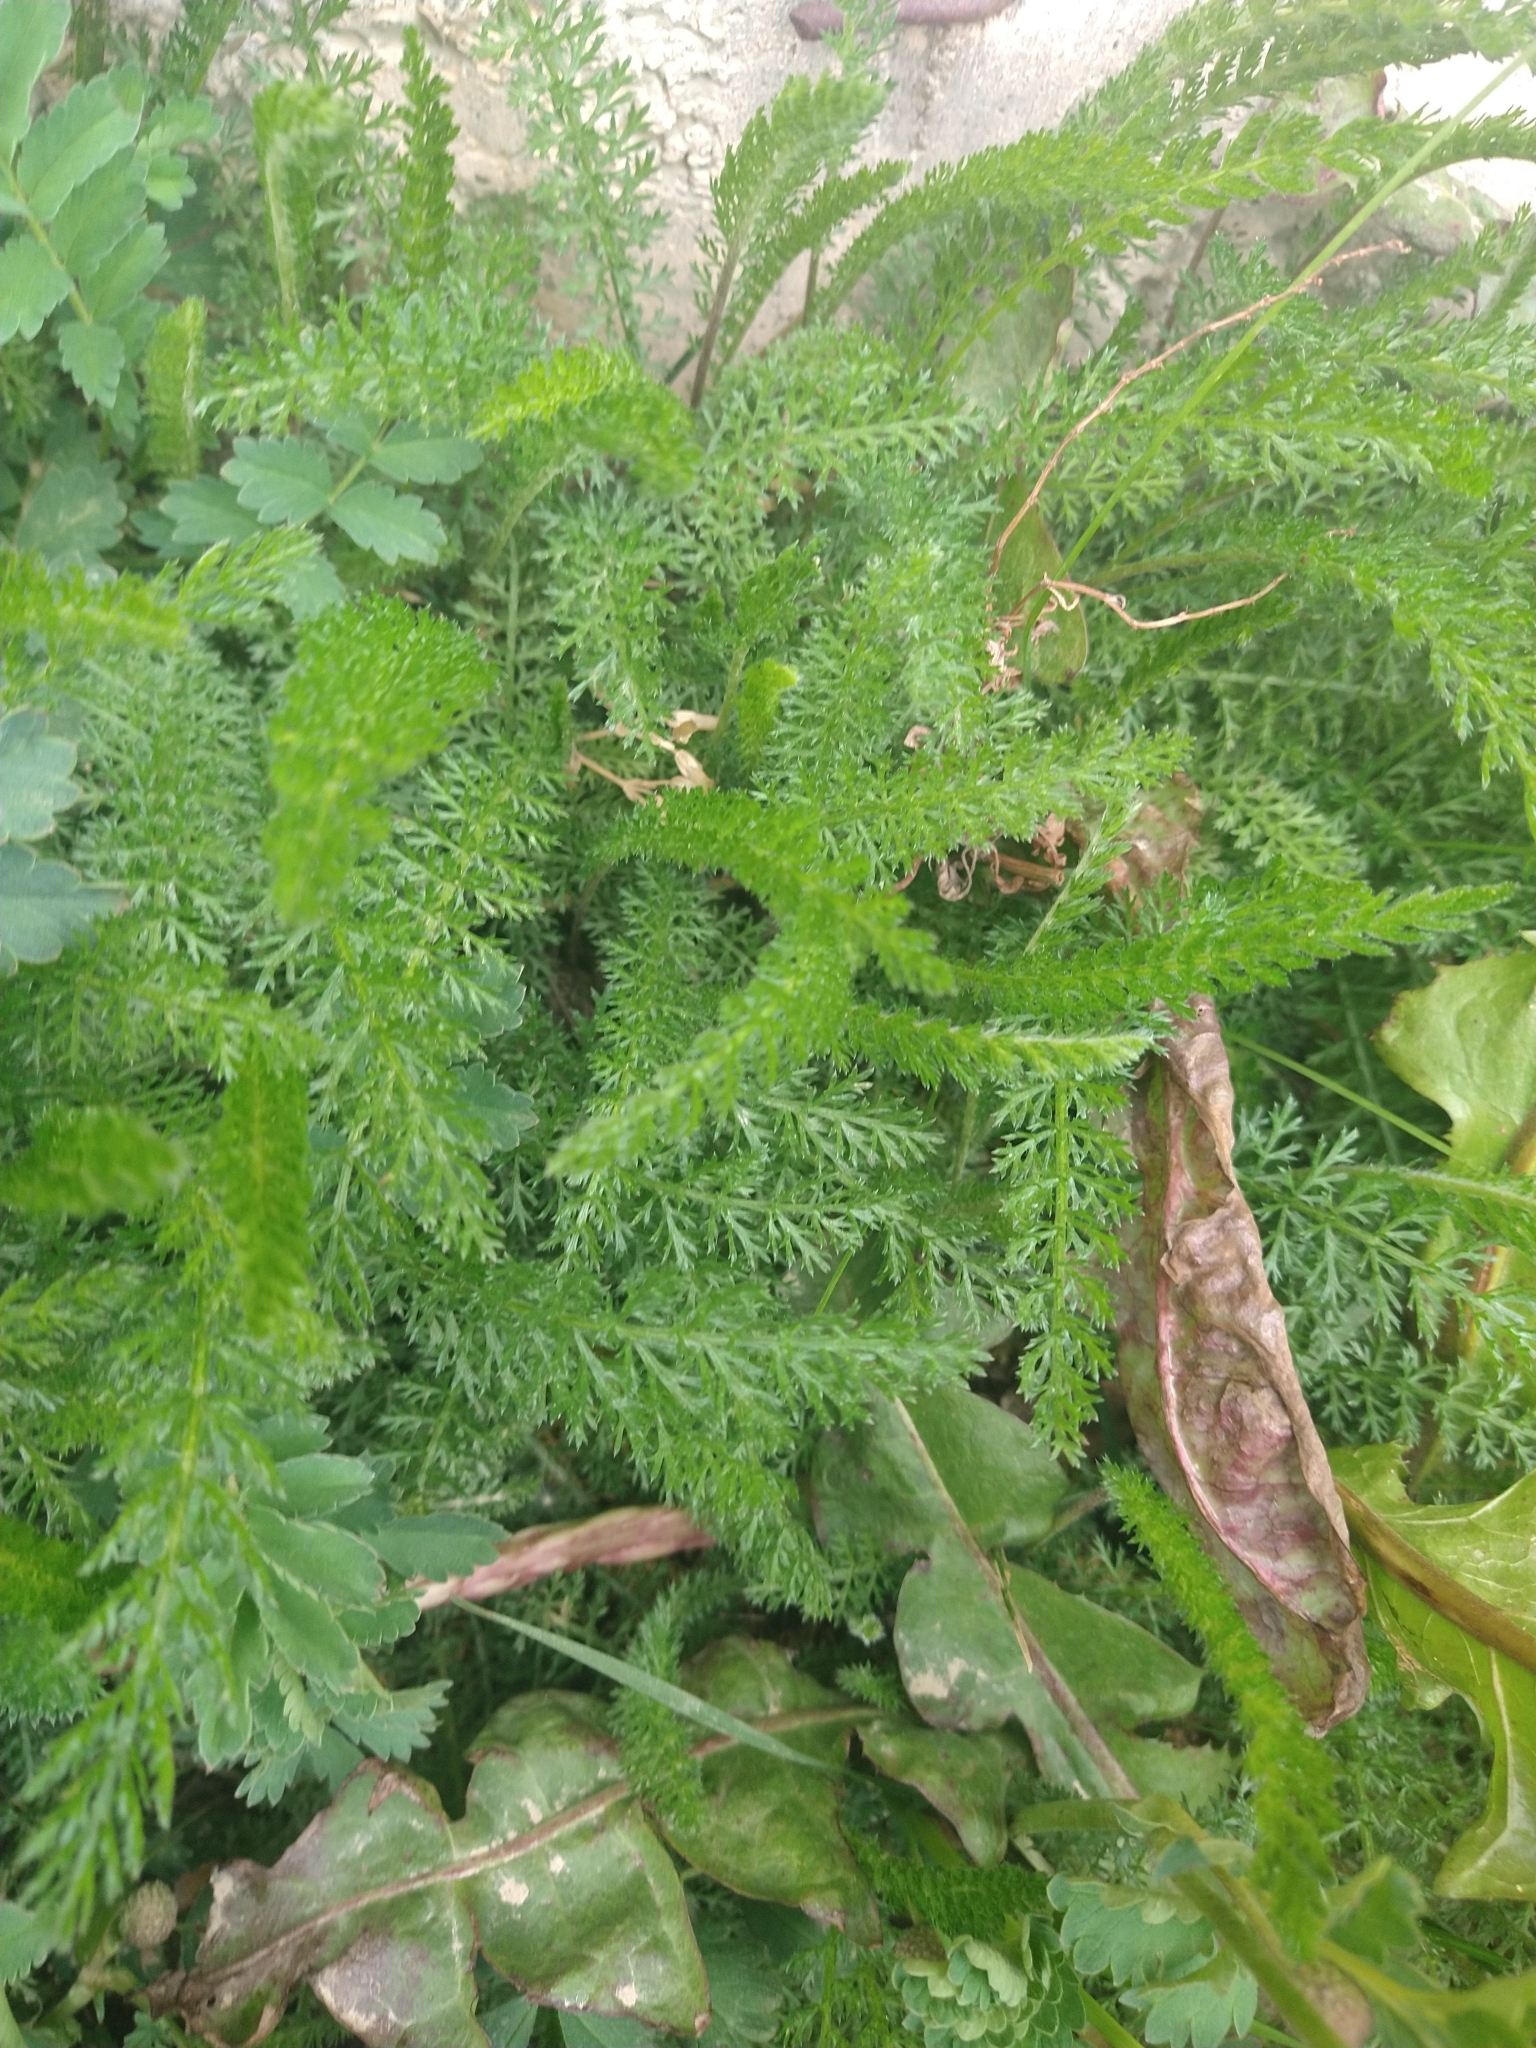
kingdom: Plantae
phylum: Tracheophyta
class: Magnoliopsida
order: Asterales
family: Asteraceae
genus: Achillea
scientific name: Achillea millefolium
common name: Yarrow
